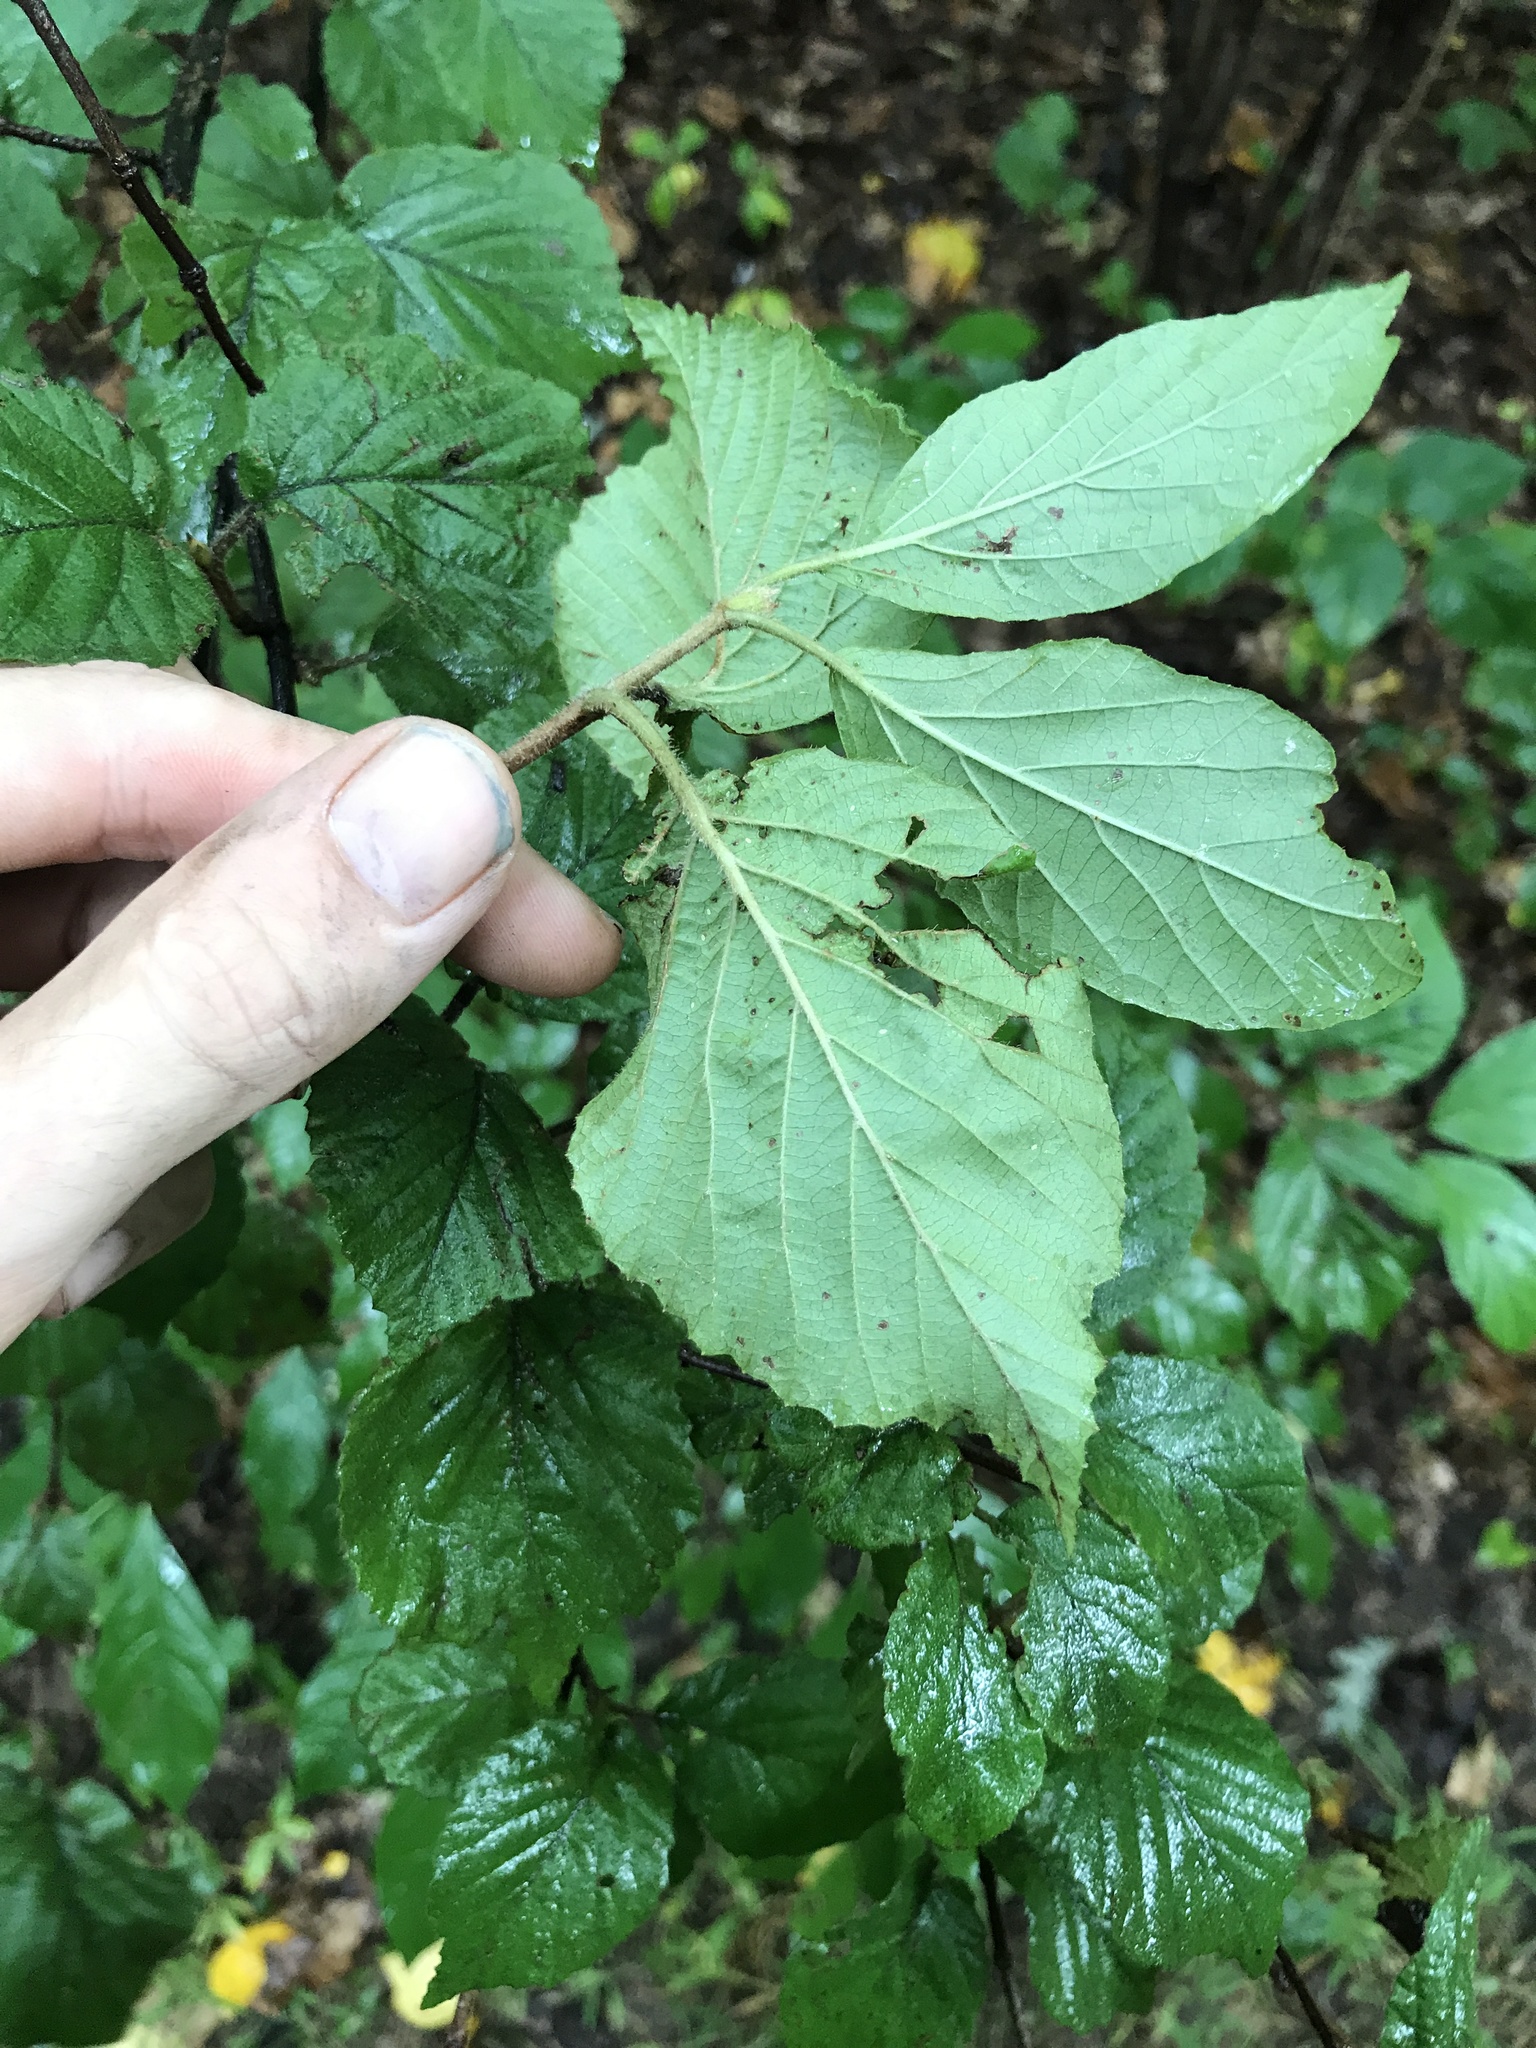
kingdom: Plantae
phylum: Tracheophyta
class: Magnoliopsida
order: Dipsacales
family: Viburnaceae
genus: Viburnum
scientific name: Viburnum dilatatum
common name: Linden arrowwood
